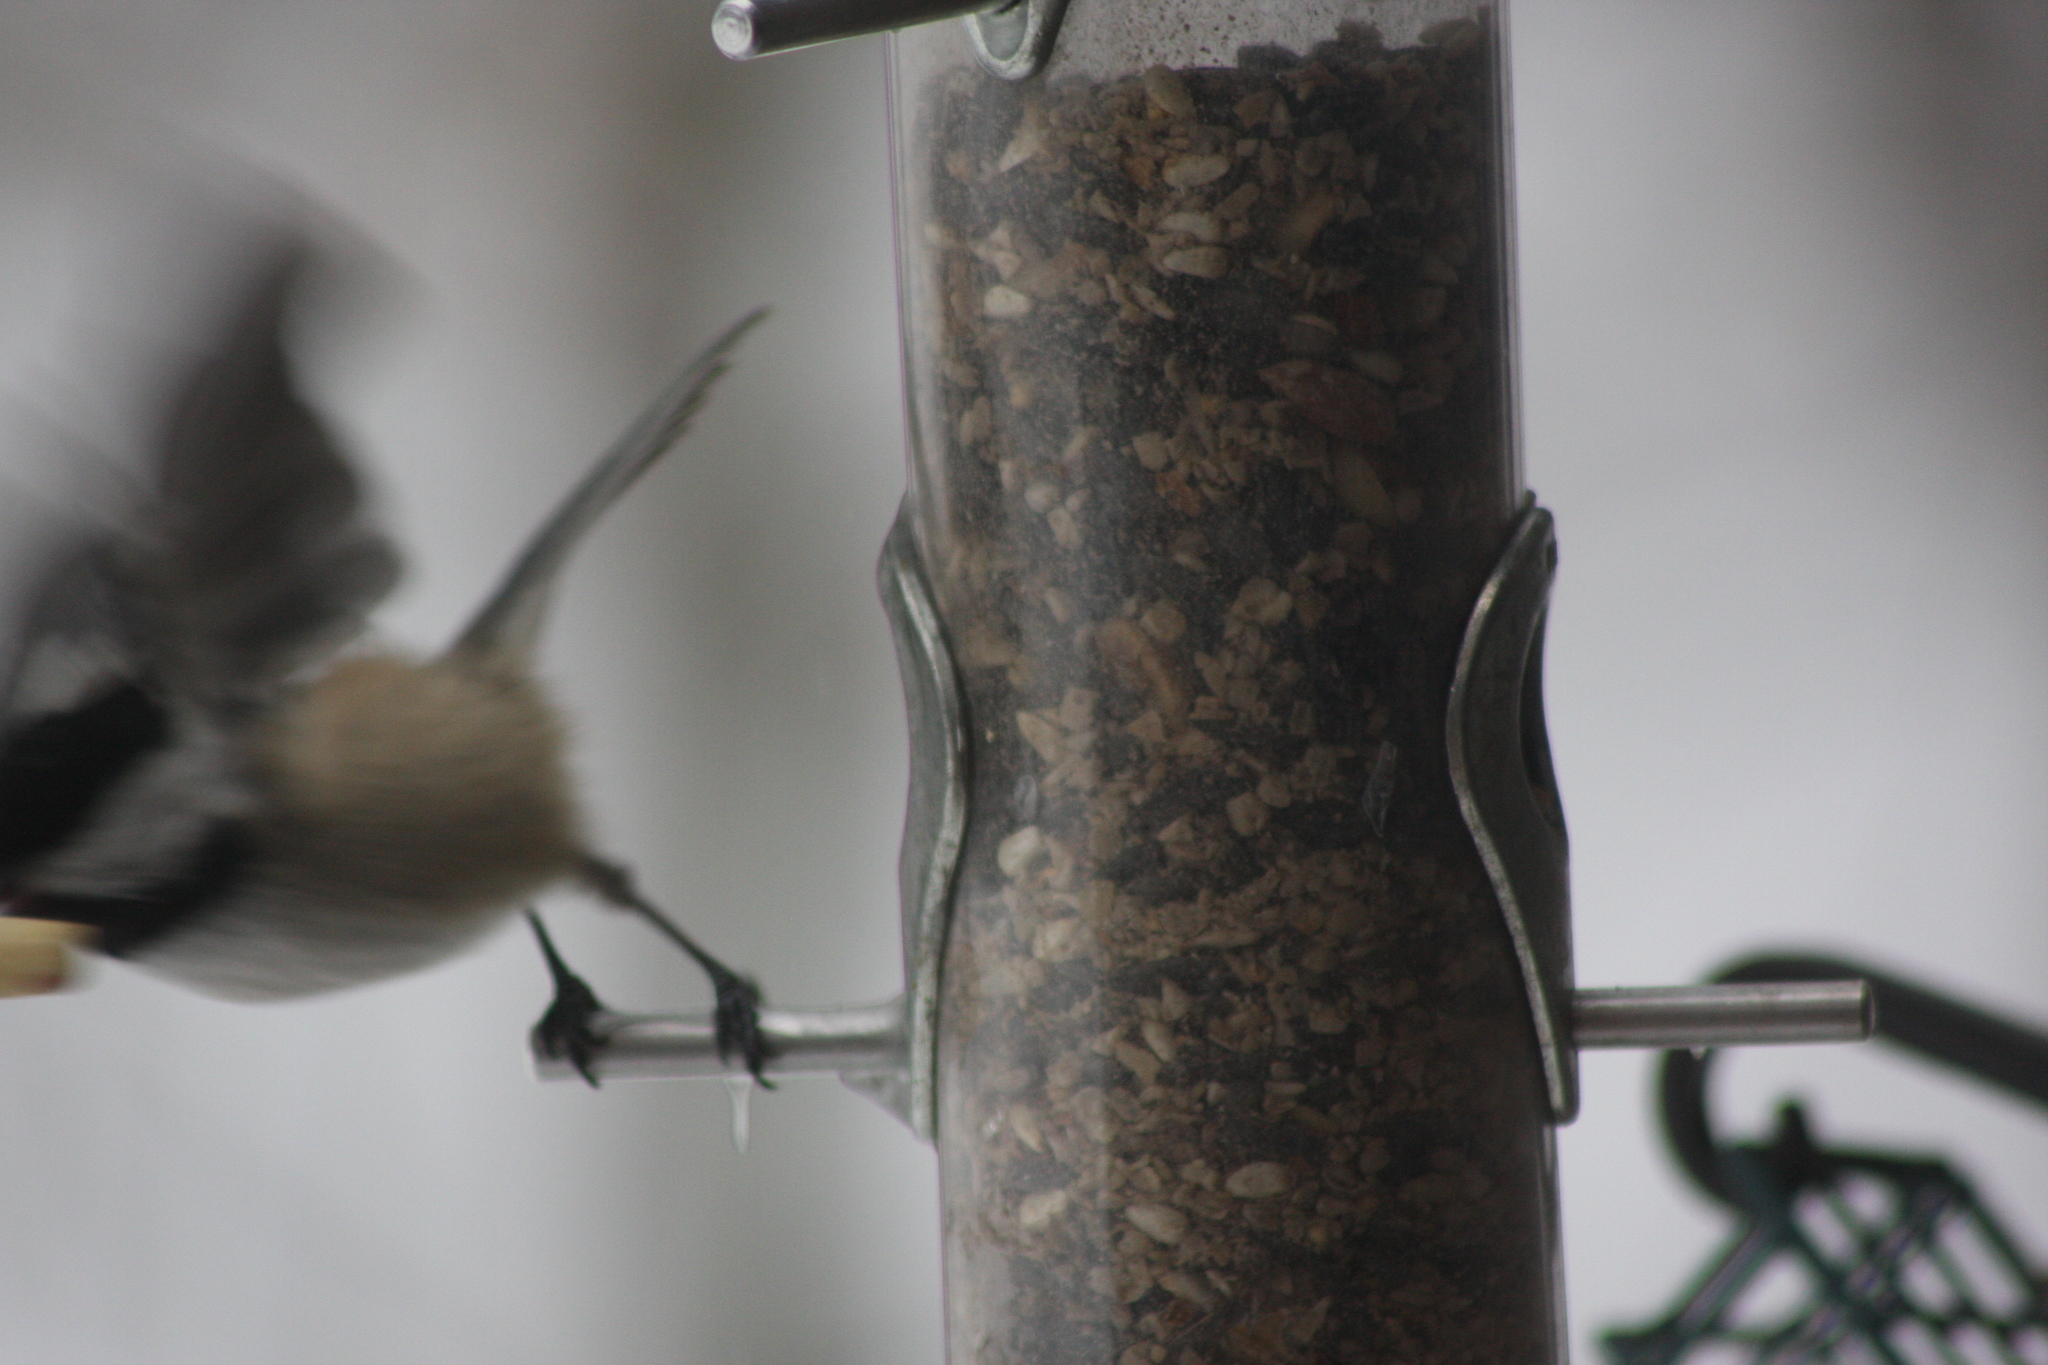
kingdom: Animalia
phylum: Chordata
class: Aves
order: Passeriformes
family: Paridae
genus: Poecile
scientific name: Poecile atricapillus
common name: Black-capped chickadee
